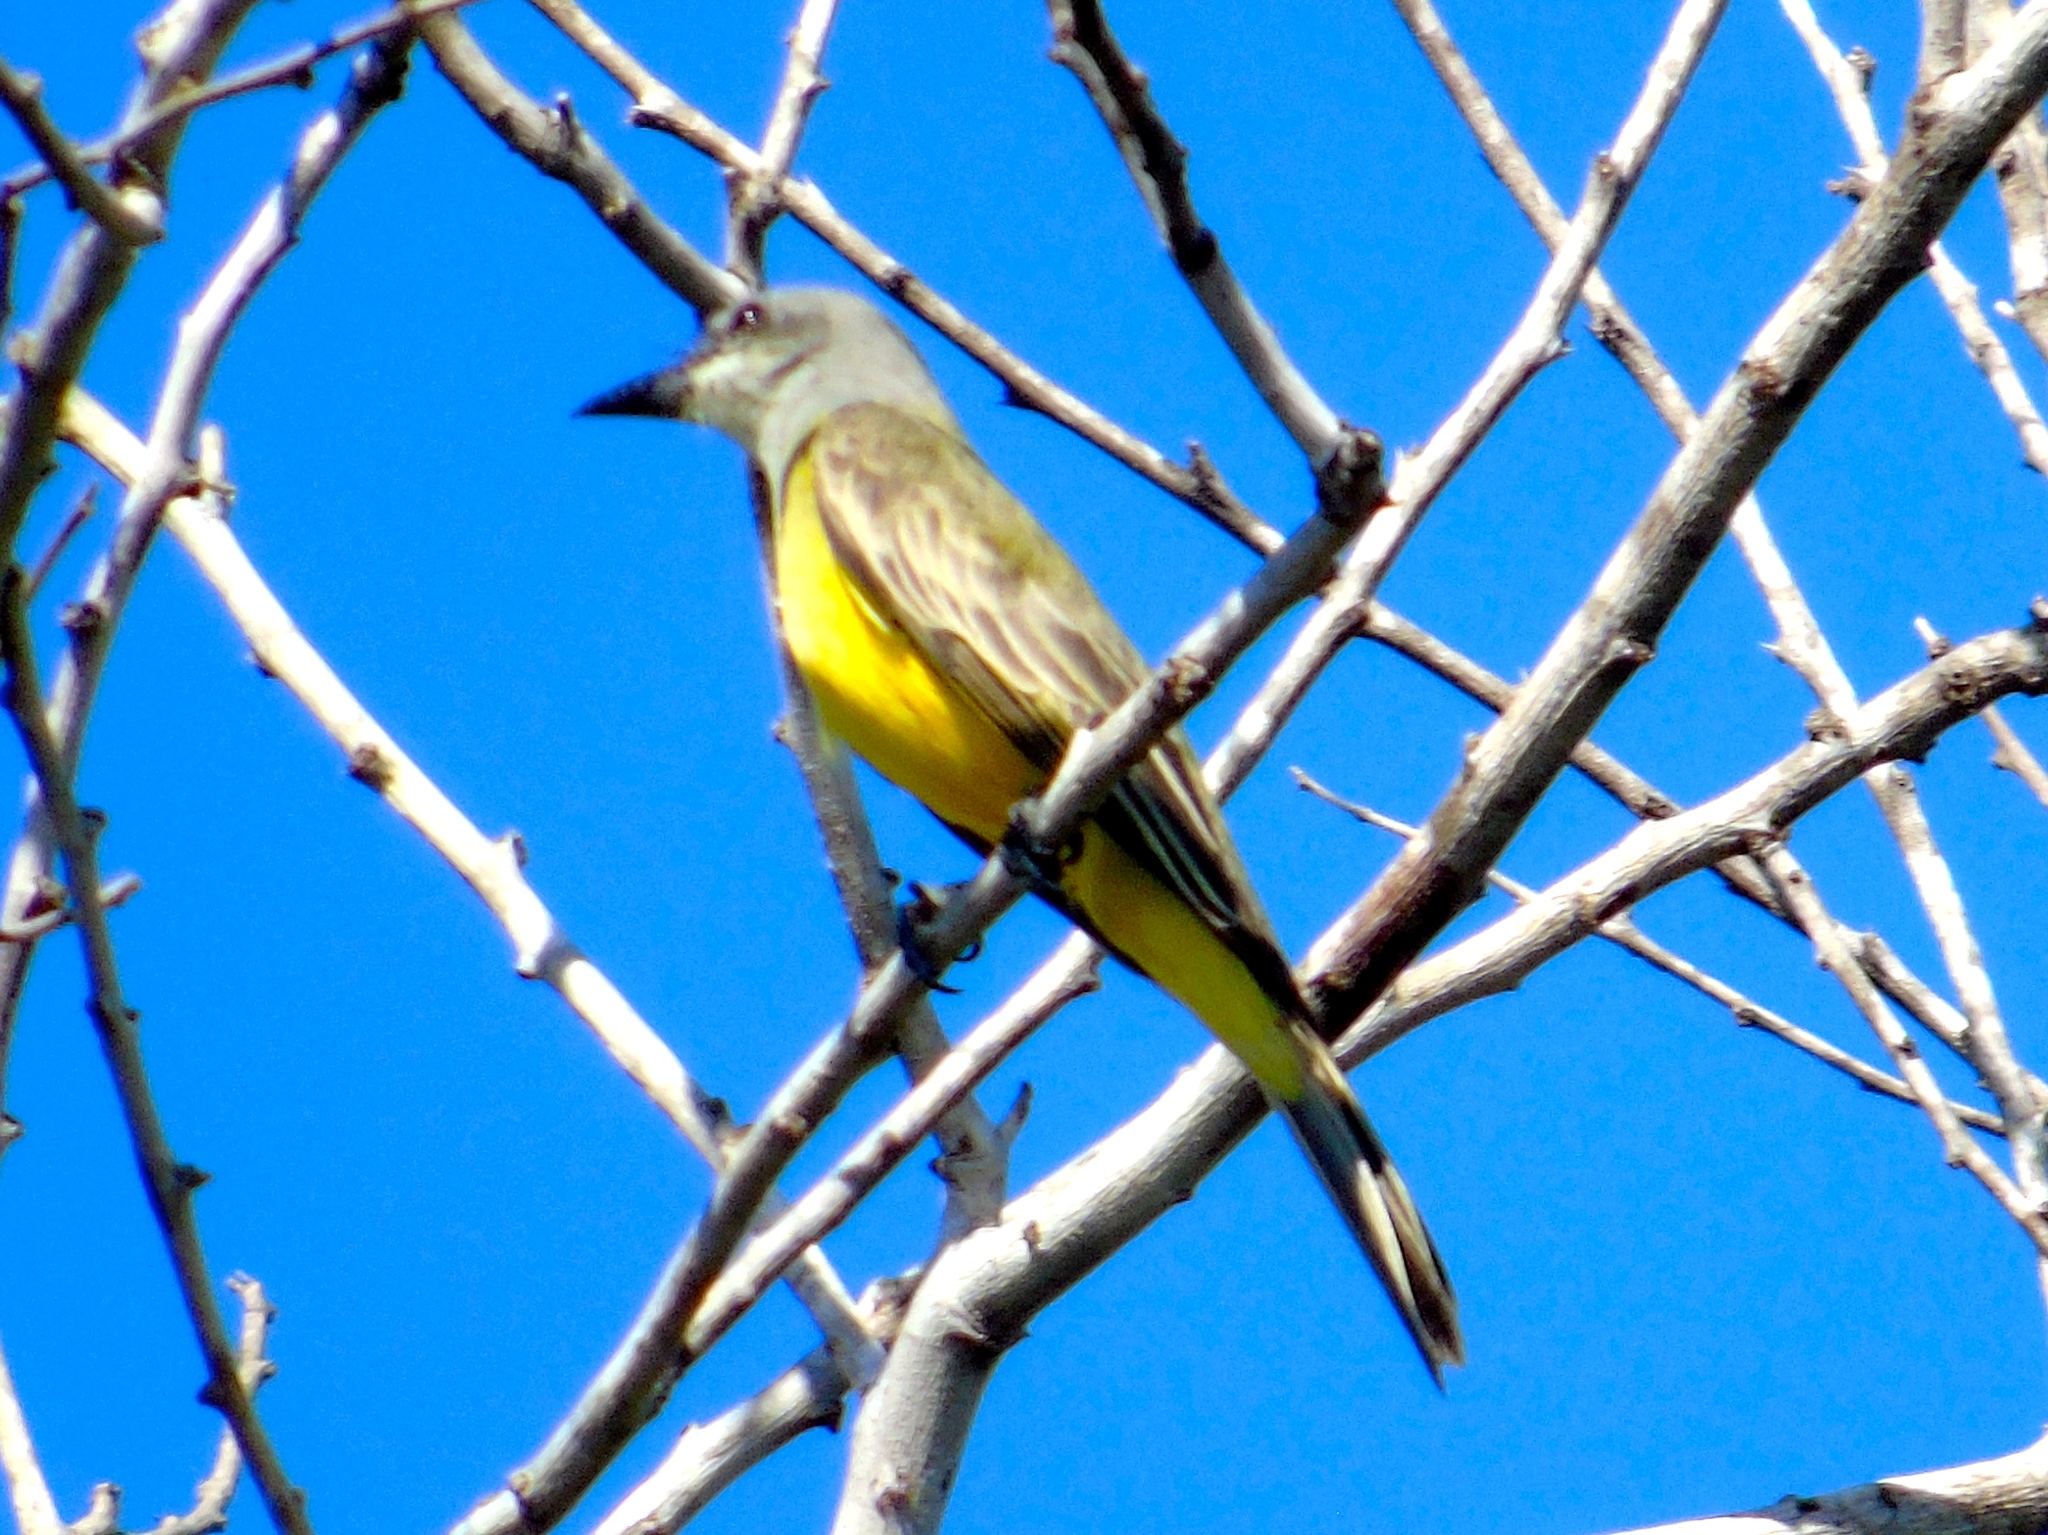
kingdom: Animalia
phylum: Chordata
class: Aves
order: Passeriformes
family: Tyrannidae
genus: Tyrannus
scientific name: Tyrannus melancholicus
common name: Tropical kingbird
